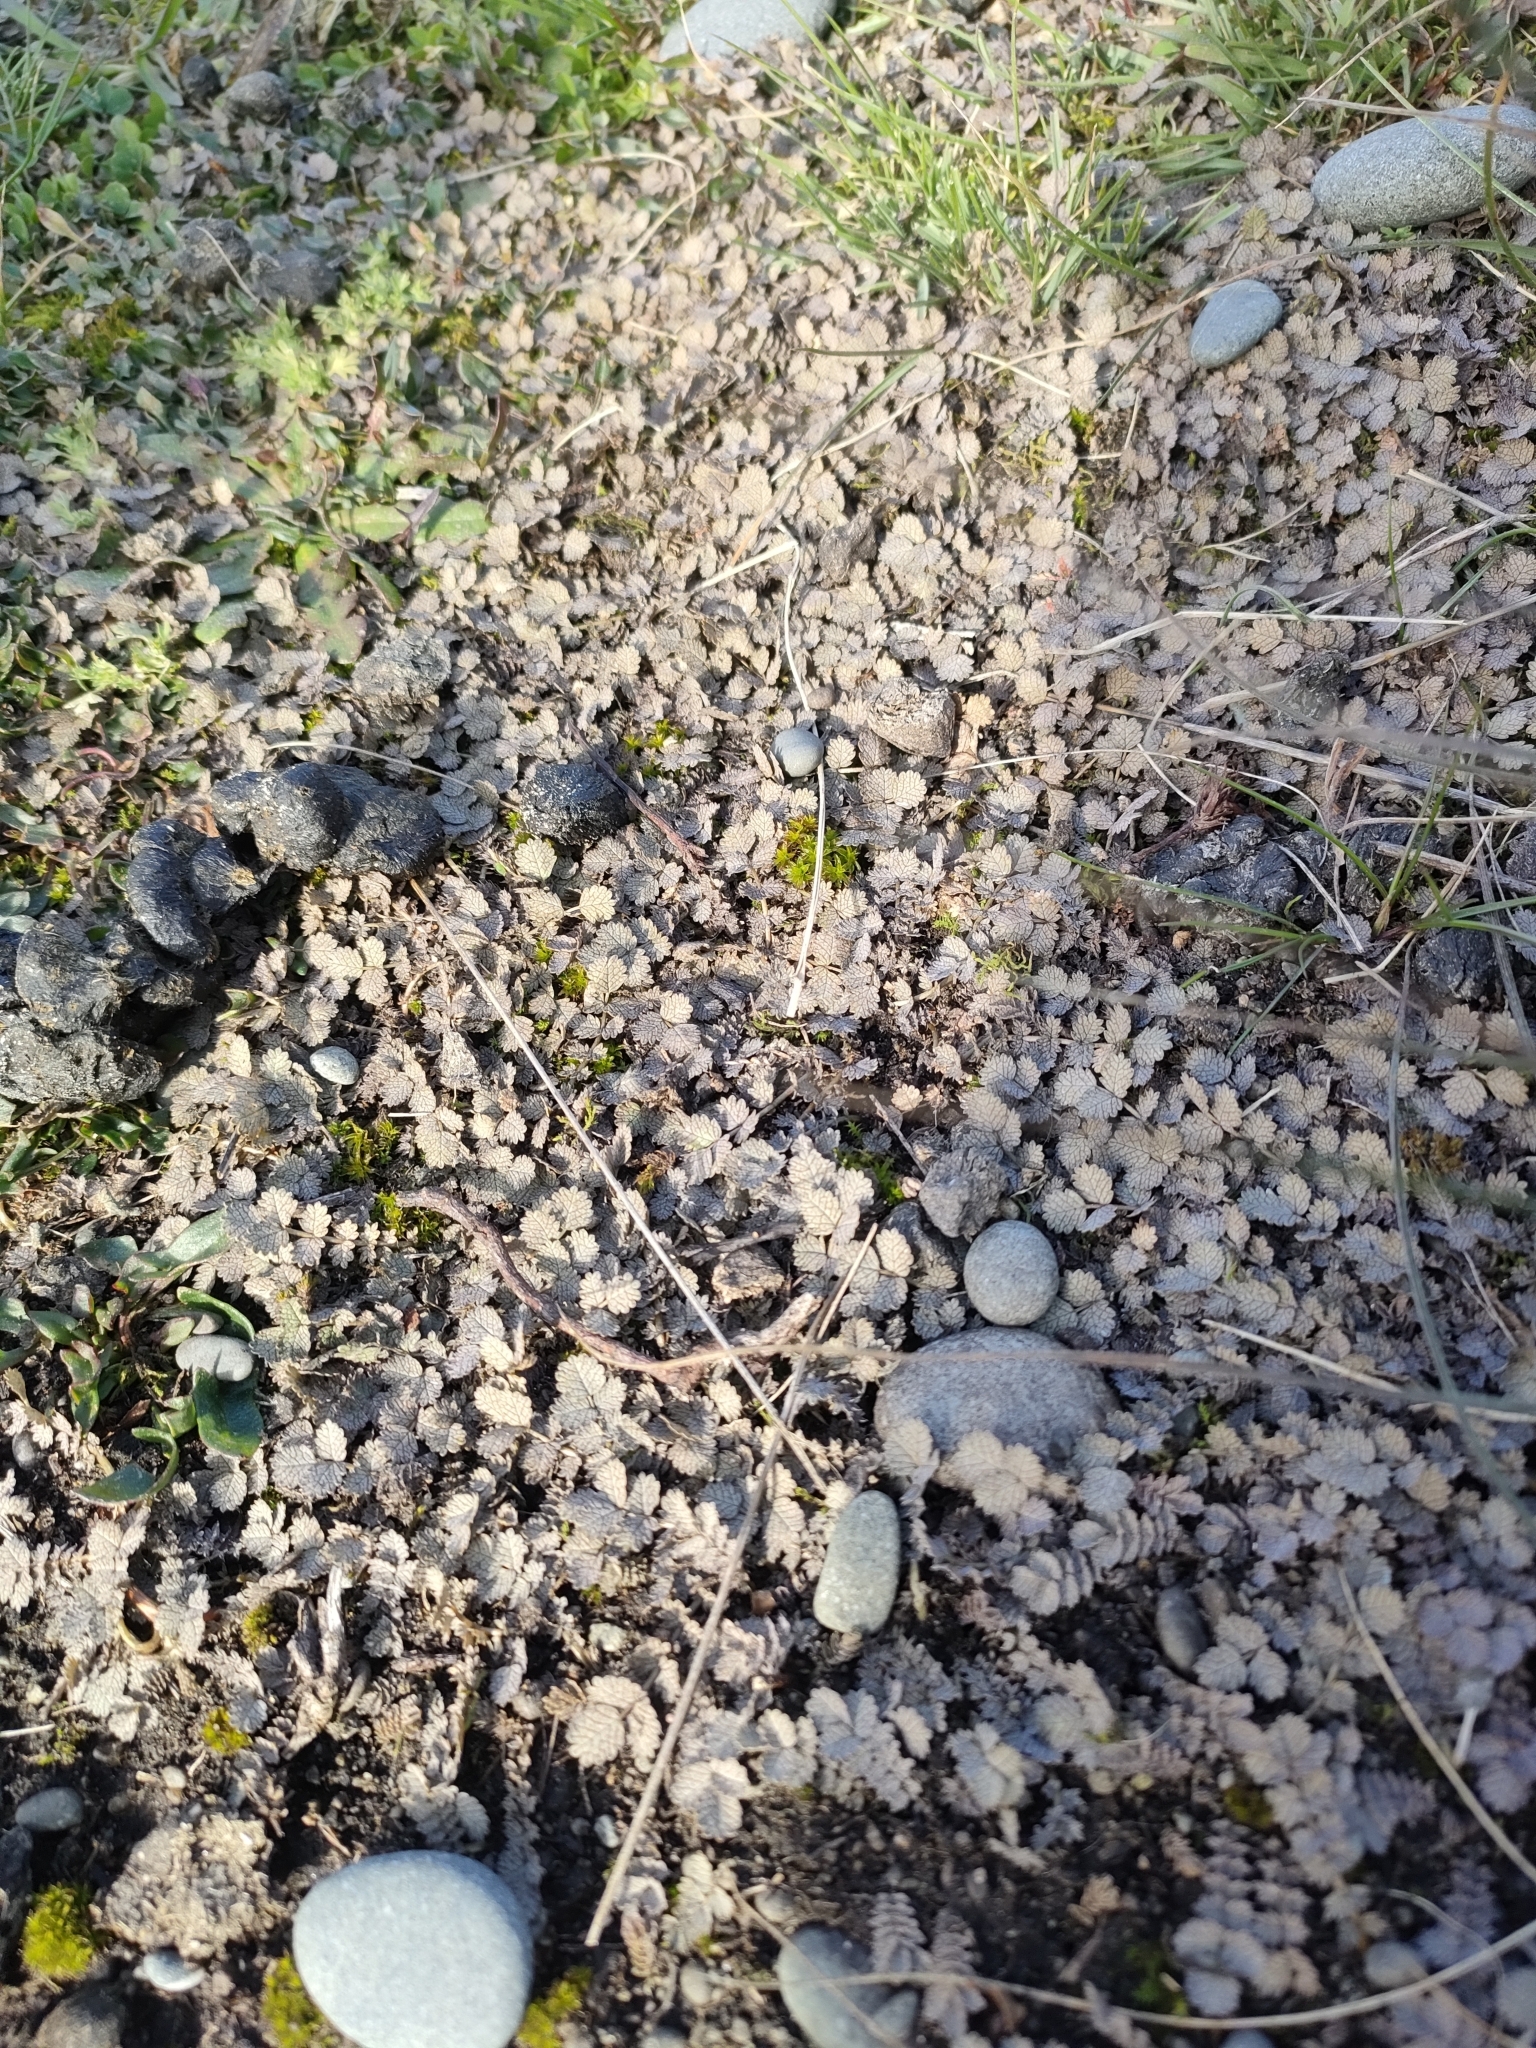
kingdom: Plantae
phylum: Tracheophyta
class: Magnoliopsida
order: Rosales
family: Rosaceae
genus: Acaena
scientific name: Acaena buchananii
